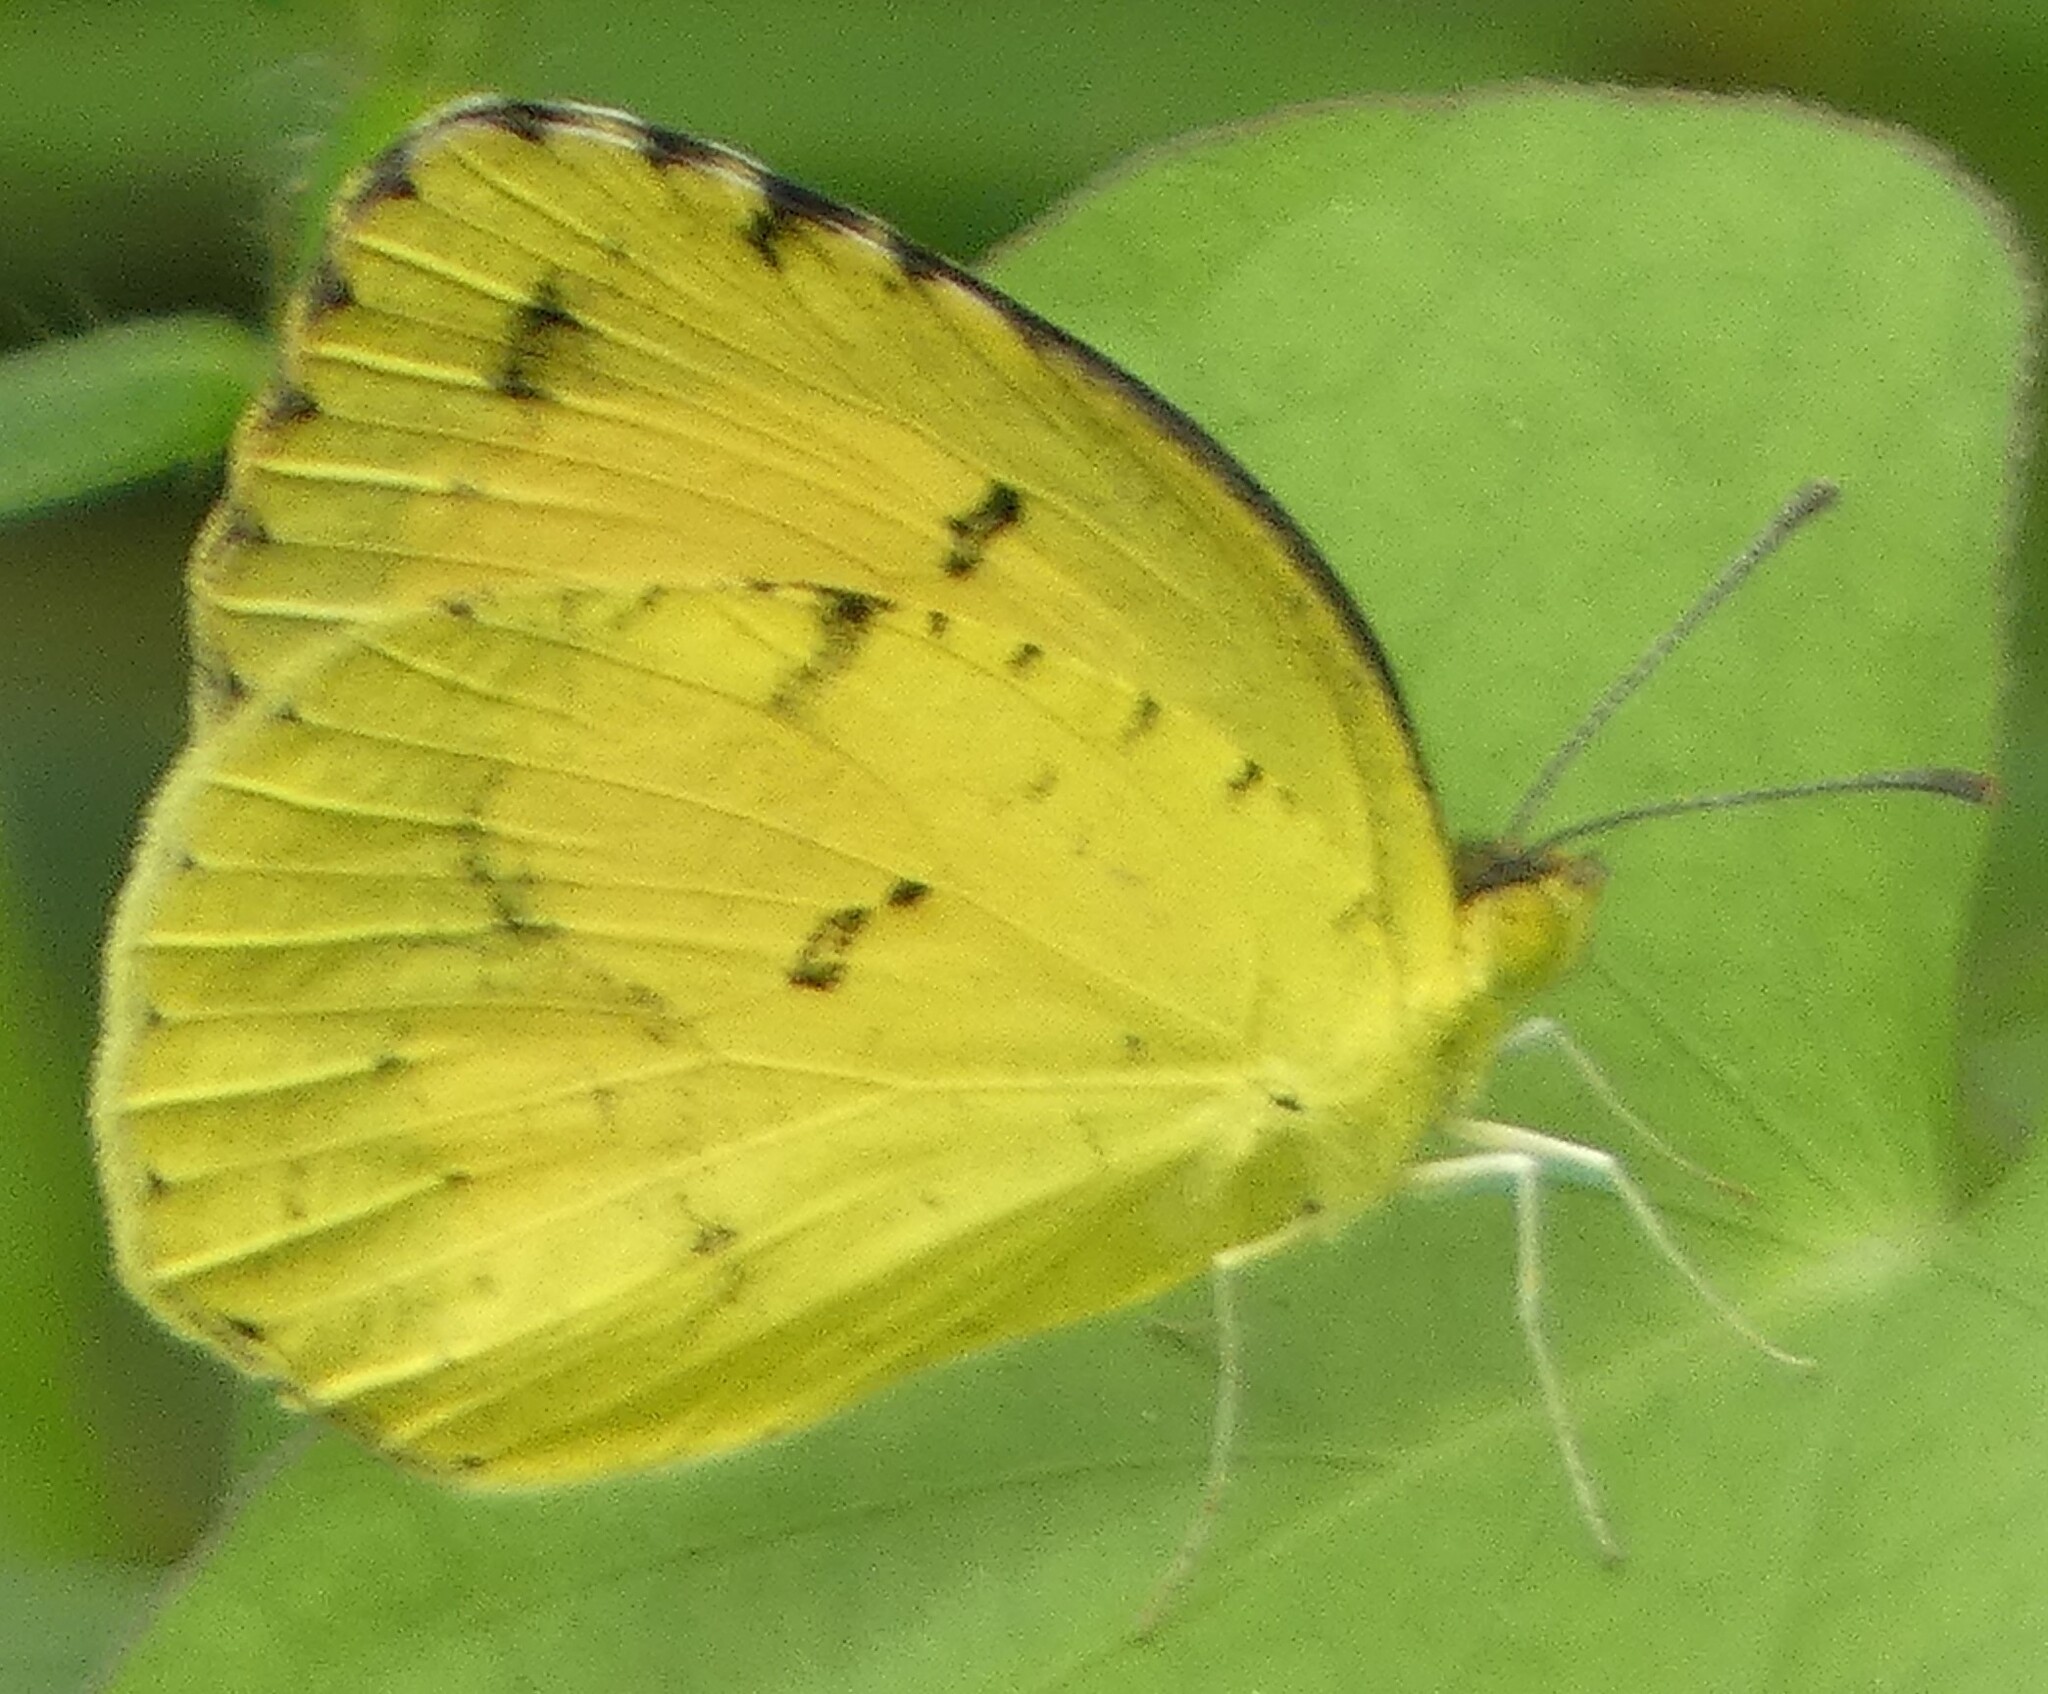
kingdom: Animalia
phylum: Arthropoda
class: Insecta
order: Lepidoptera
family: Pieridae
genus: Abaeis
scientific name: Abaeis nicippe
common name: Sleepy orange
